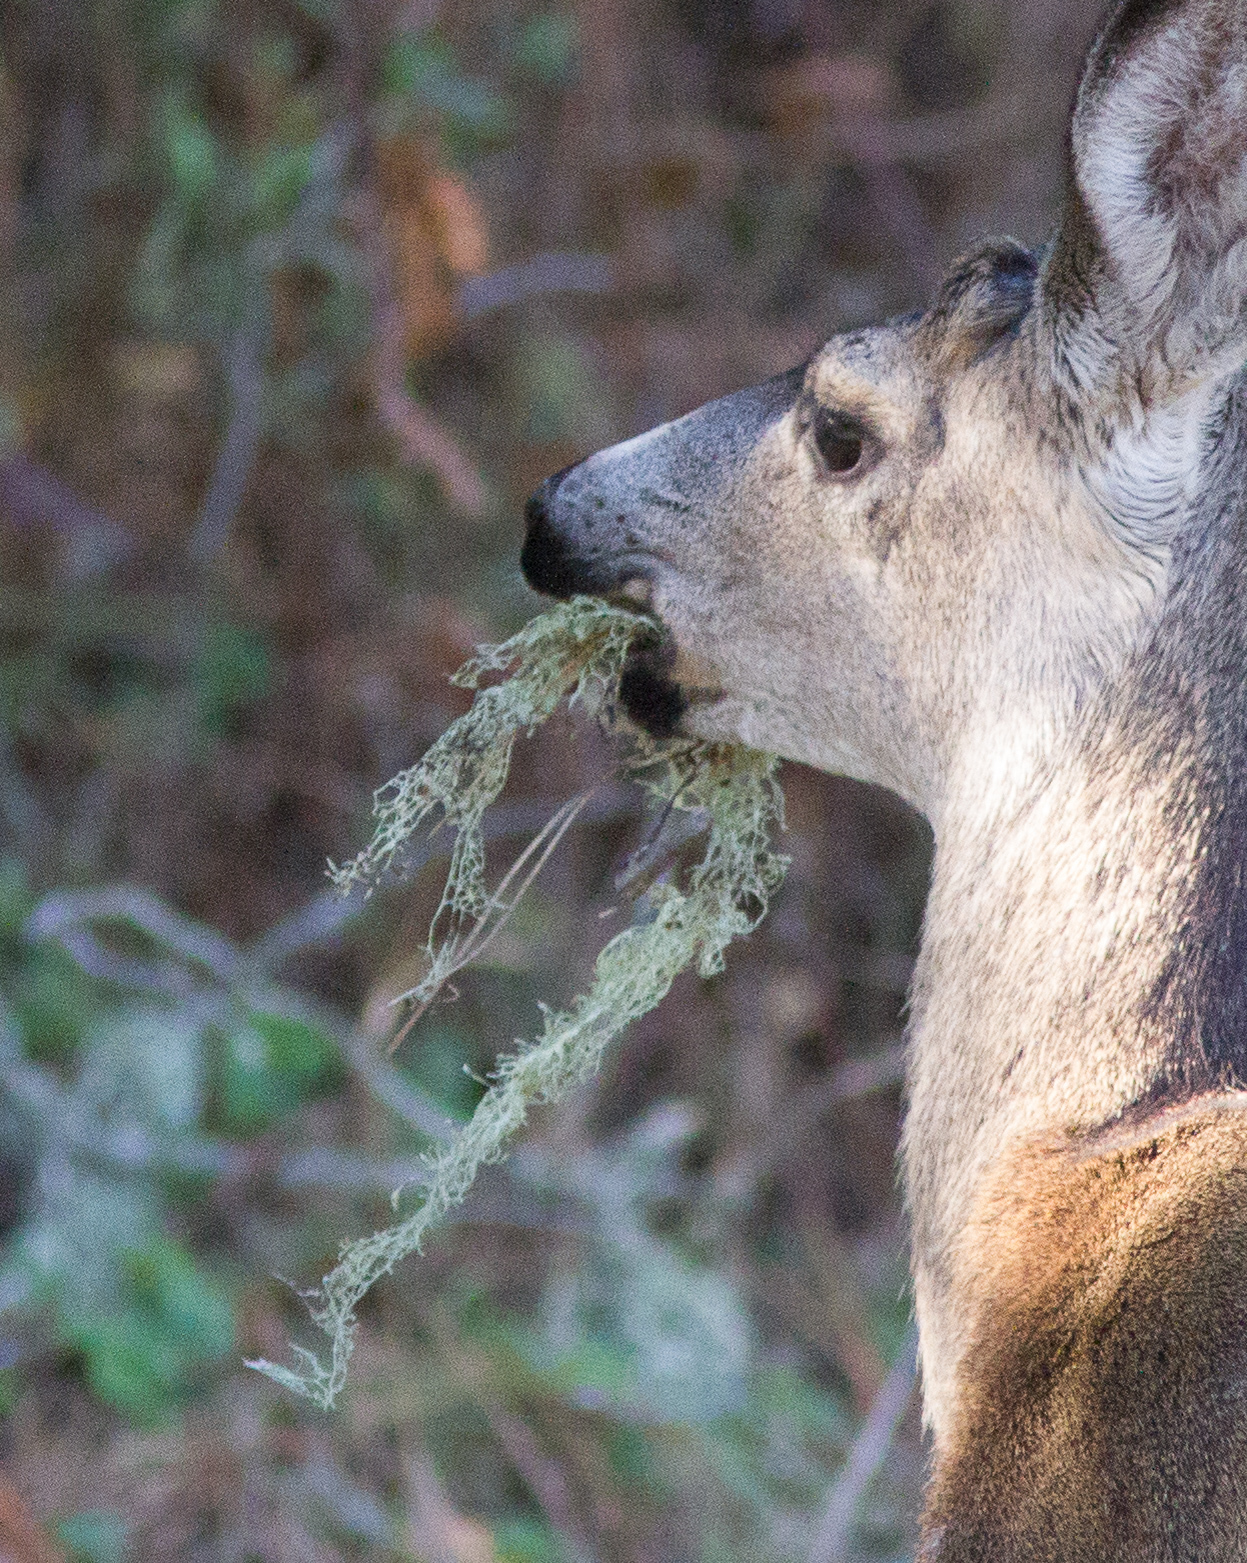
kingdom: Fungi
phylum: Ascomycota
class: Lecanoromycetes
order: Lecanorales
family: Ramalinaceae
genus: Ramalina
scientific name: Ramalina menziesii
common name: Lace lichen
